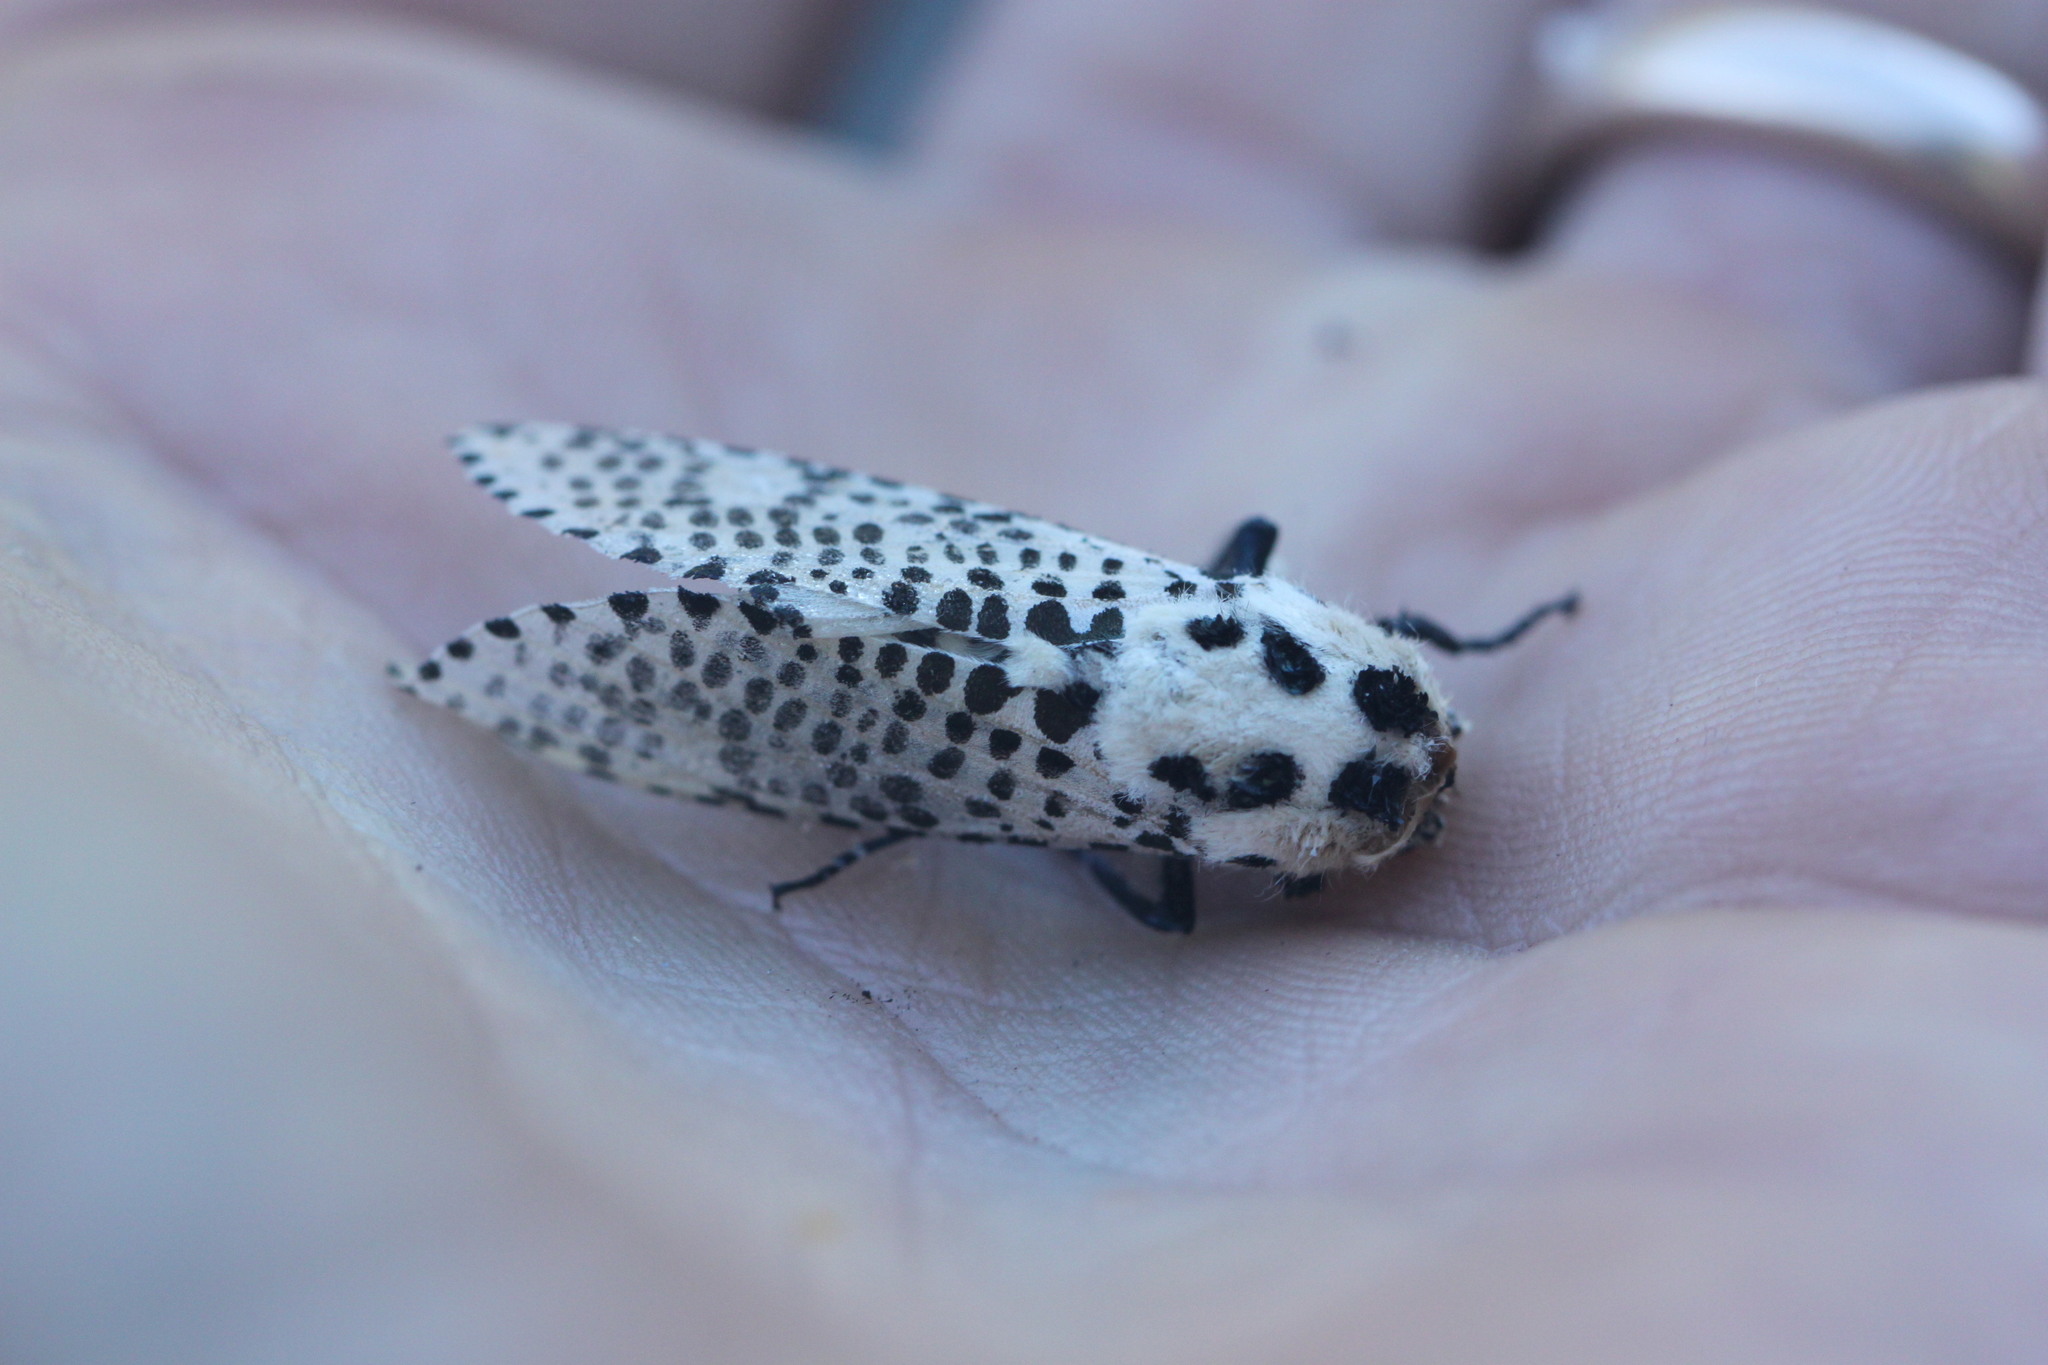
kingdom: Animalia
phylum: Arthropoda
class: Insecta
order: Lepidoptera
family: Cossidae
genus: Zeuzera
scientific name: Zeuzera pyrina
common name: Leopard moth
